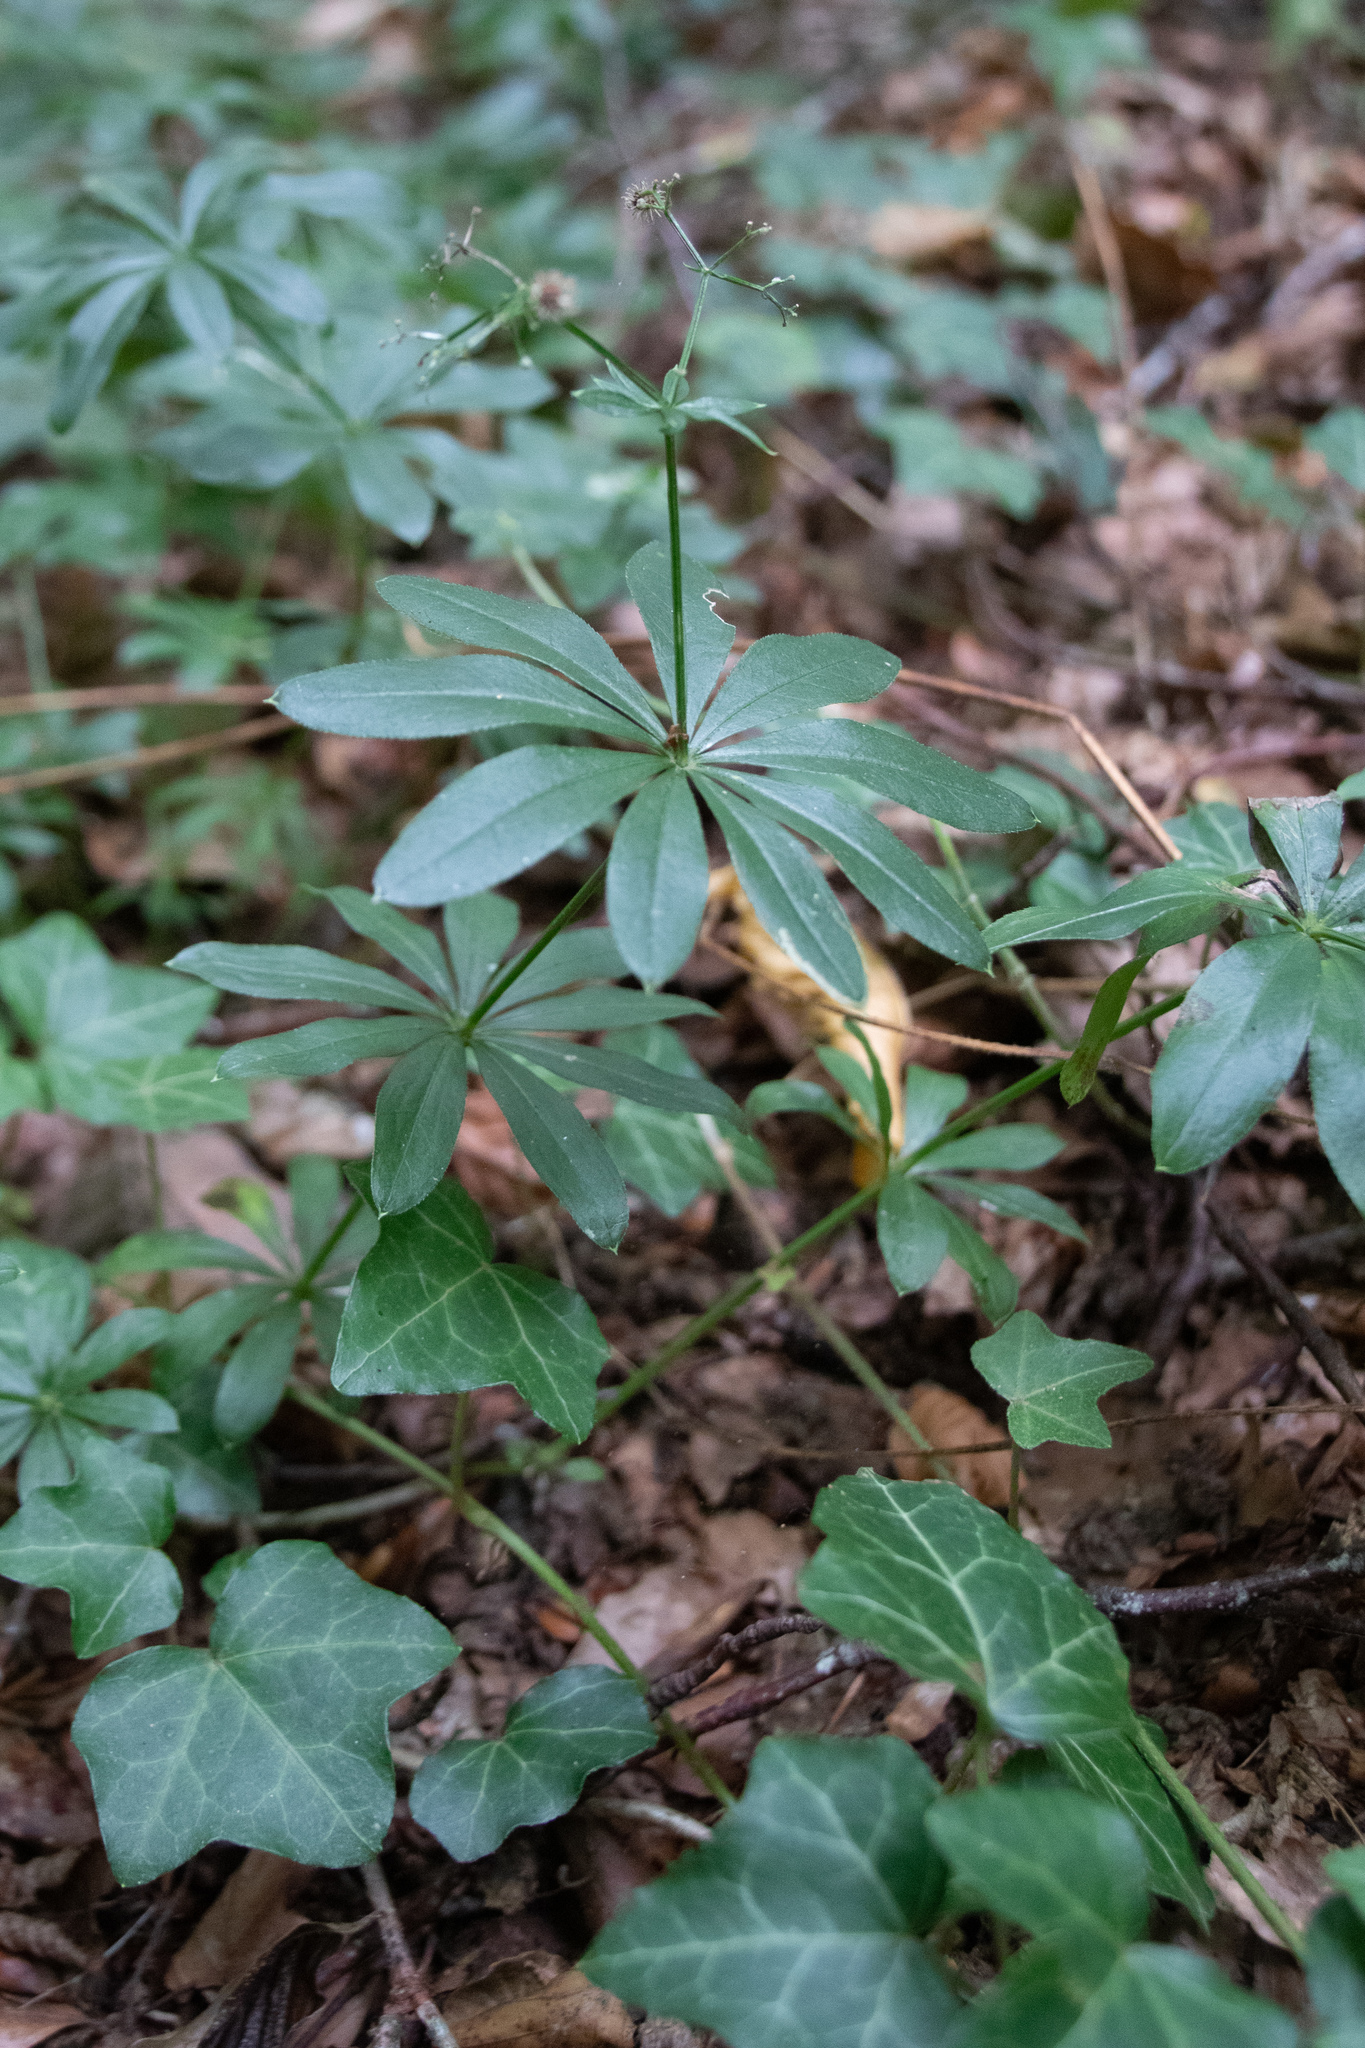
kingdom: Plantae
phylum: Tracheophyta
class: Magnoliopsida
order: Gentianales
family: Rubiaceae
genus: Galium
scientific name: Galium odoratum
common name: Sweet woodruff
